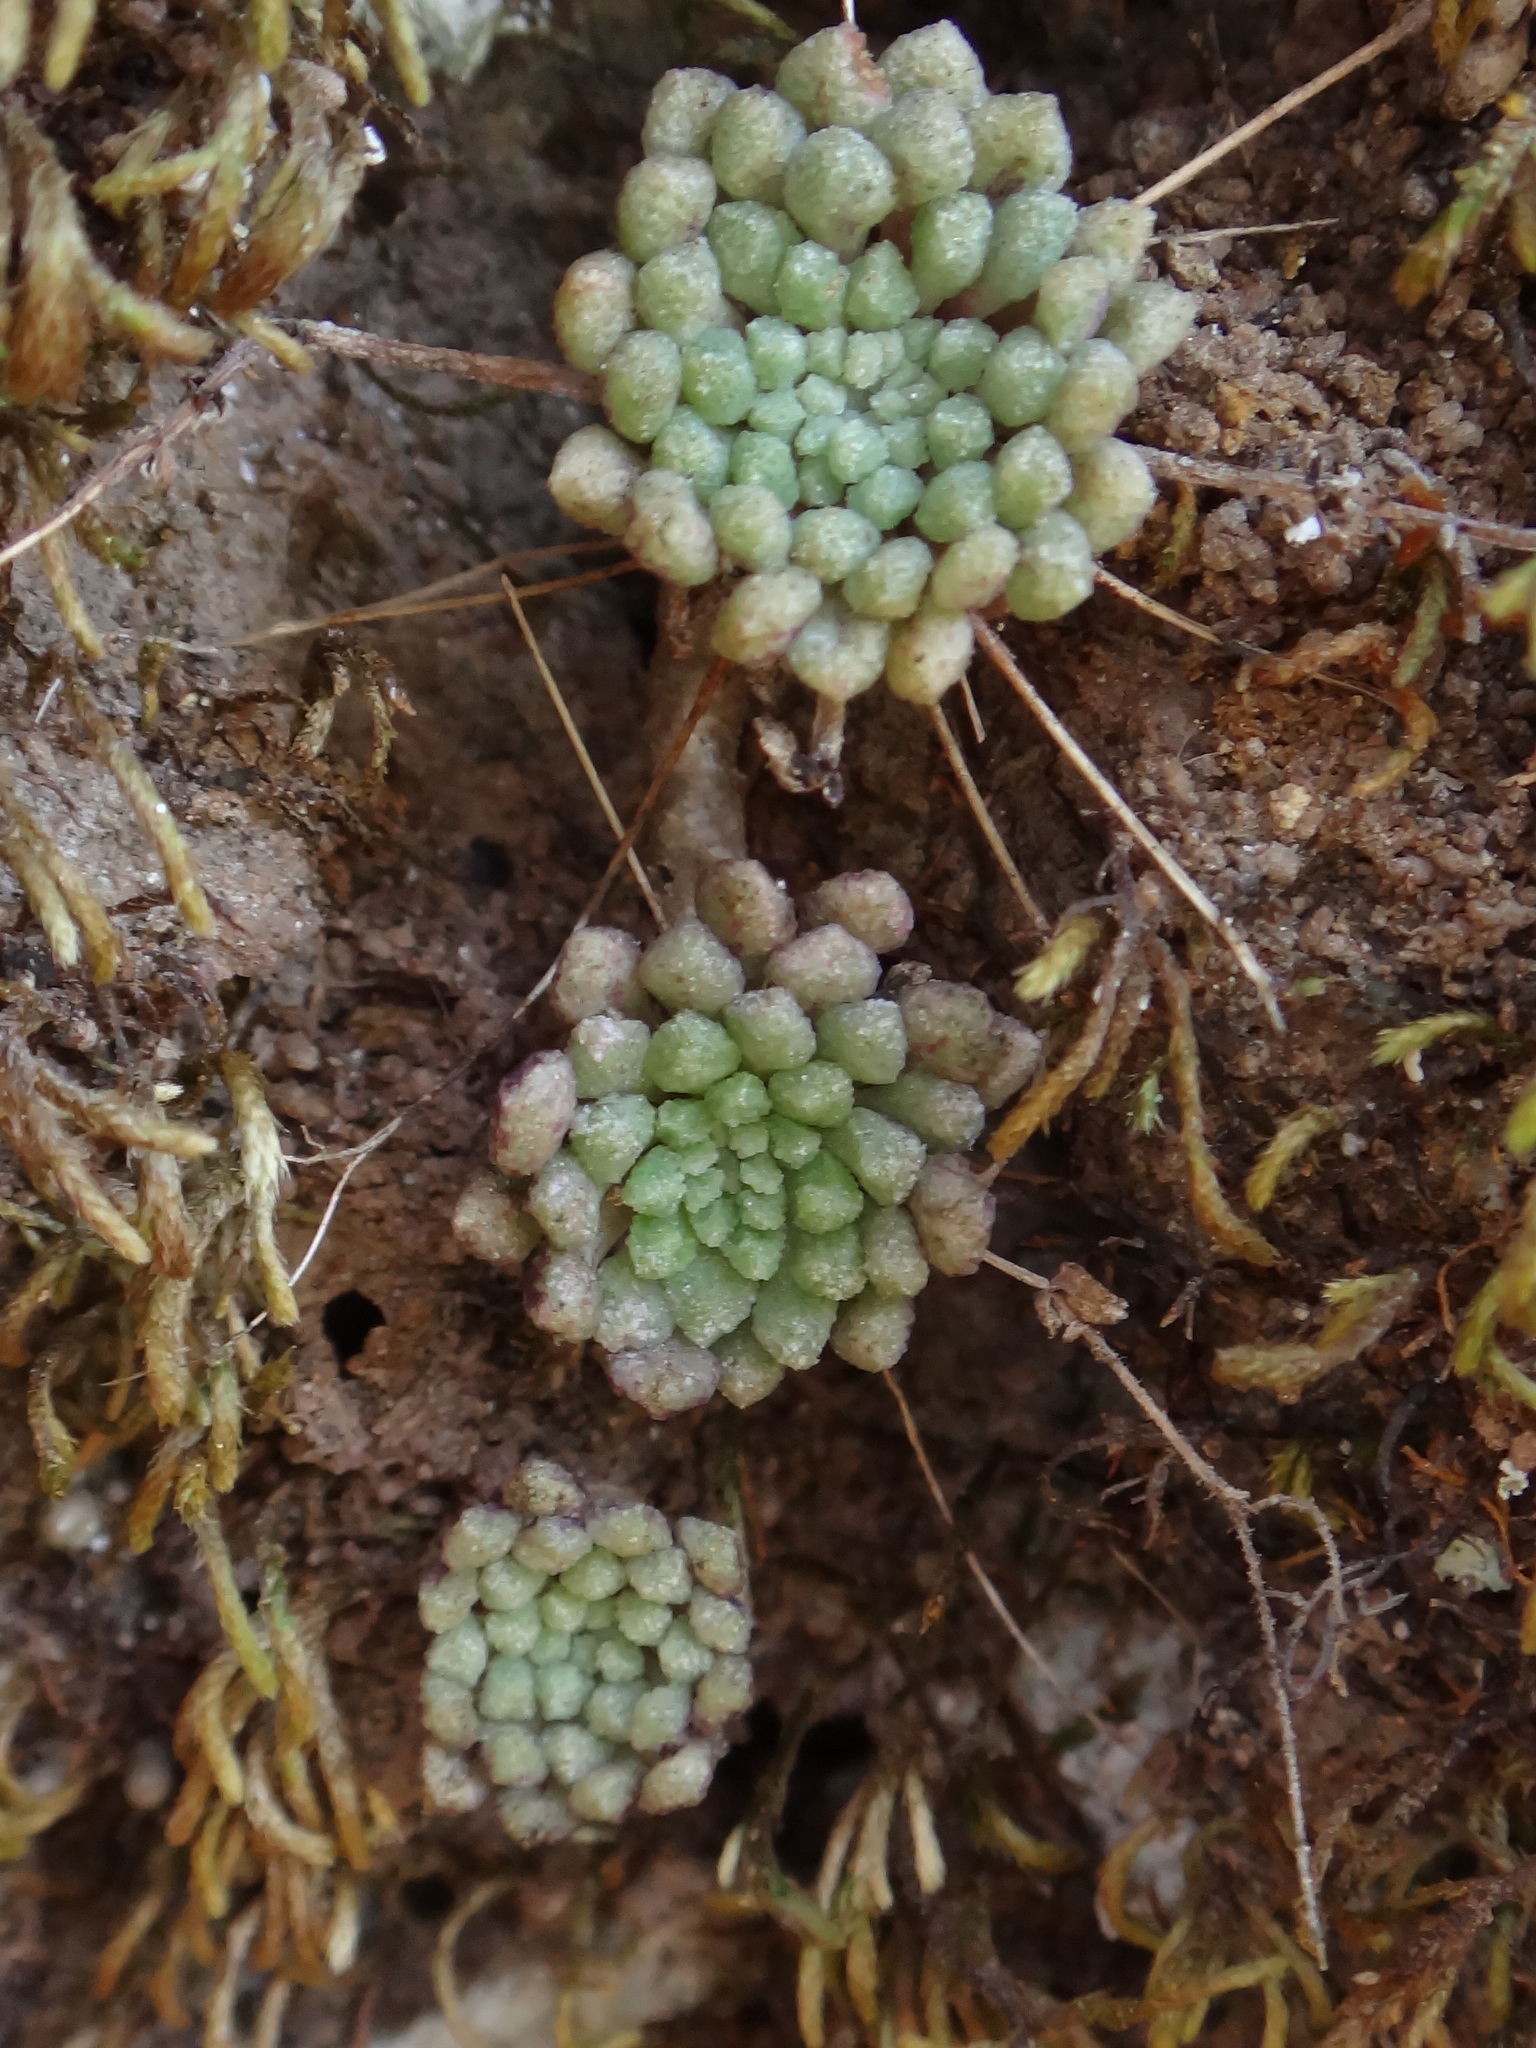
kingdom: Plantae
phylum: Tracheophyta
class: Magnoliopsida
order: Saxifragales
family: Crassulaceae
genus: Monanthes
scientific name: Monanthes brachycaulos
